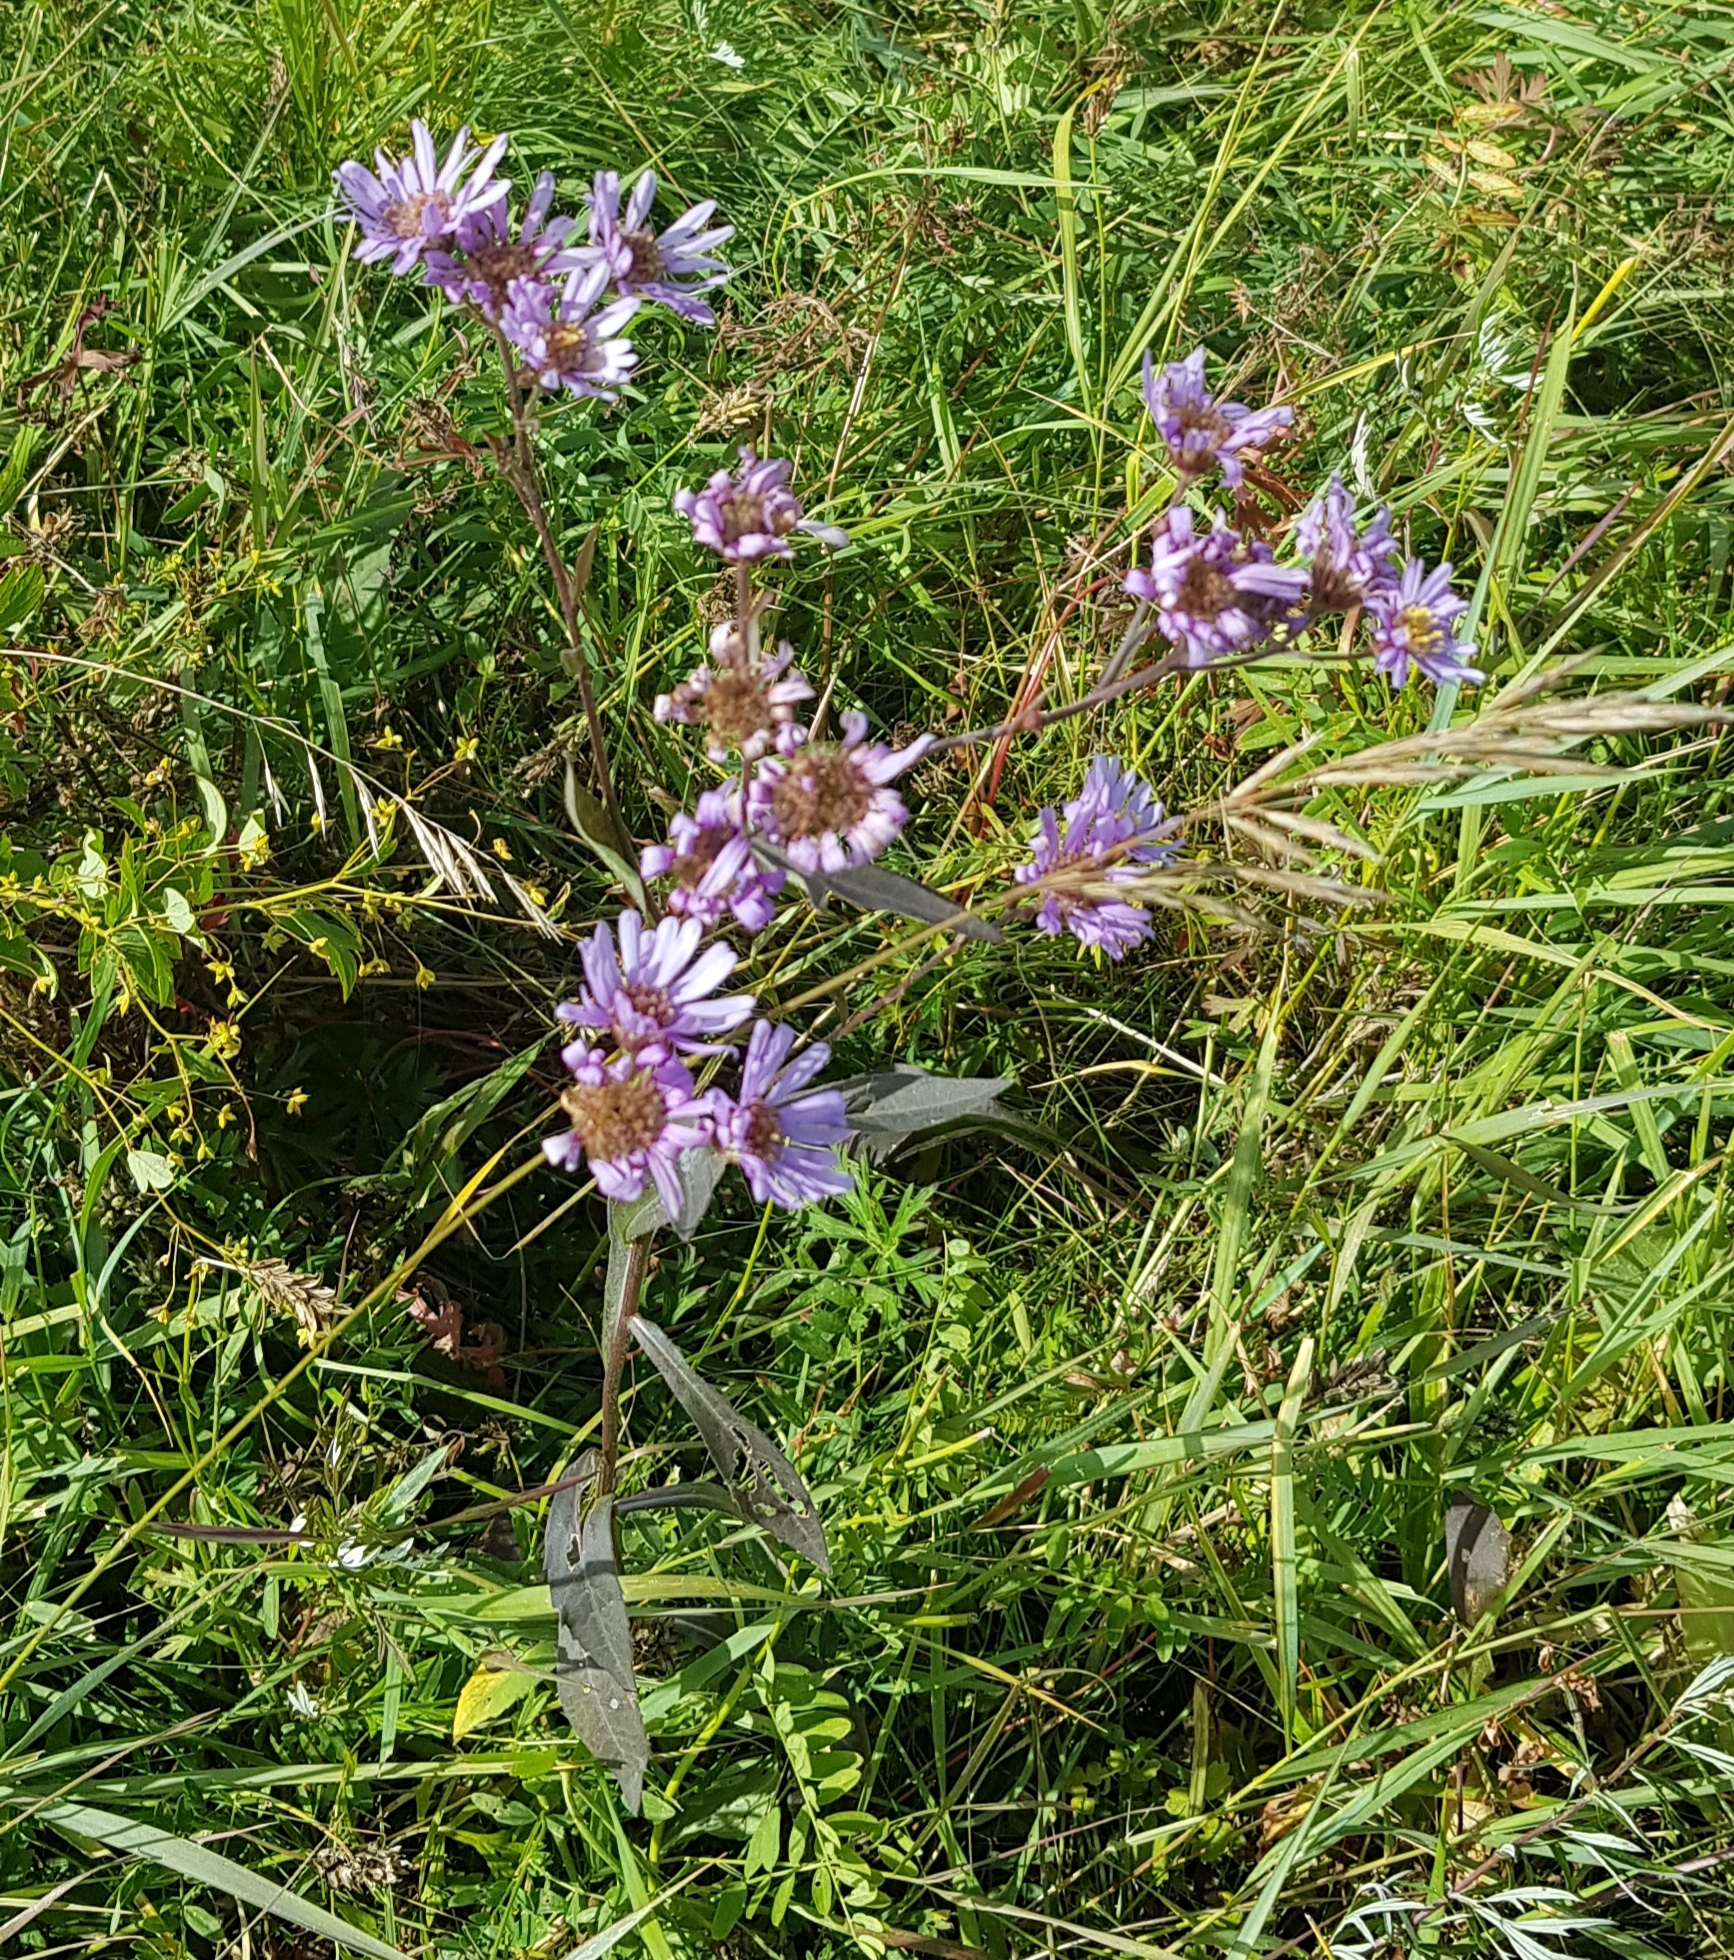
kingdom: Plantae
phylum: Tracheophyta
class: Magnoliopsida
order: Asterales
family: Asteraceae
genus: Tripolium
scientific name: Tripolium pannonicum
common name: Sea aster
